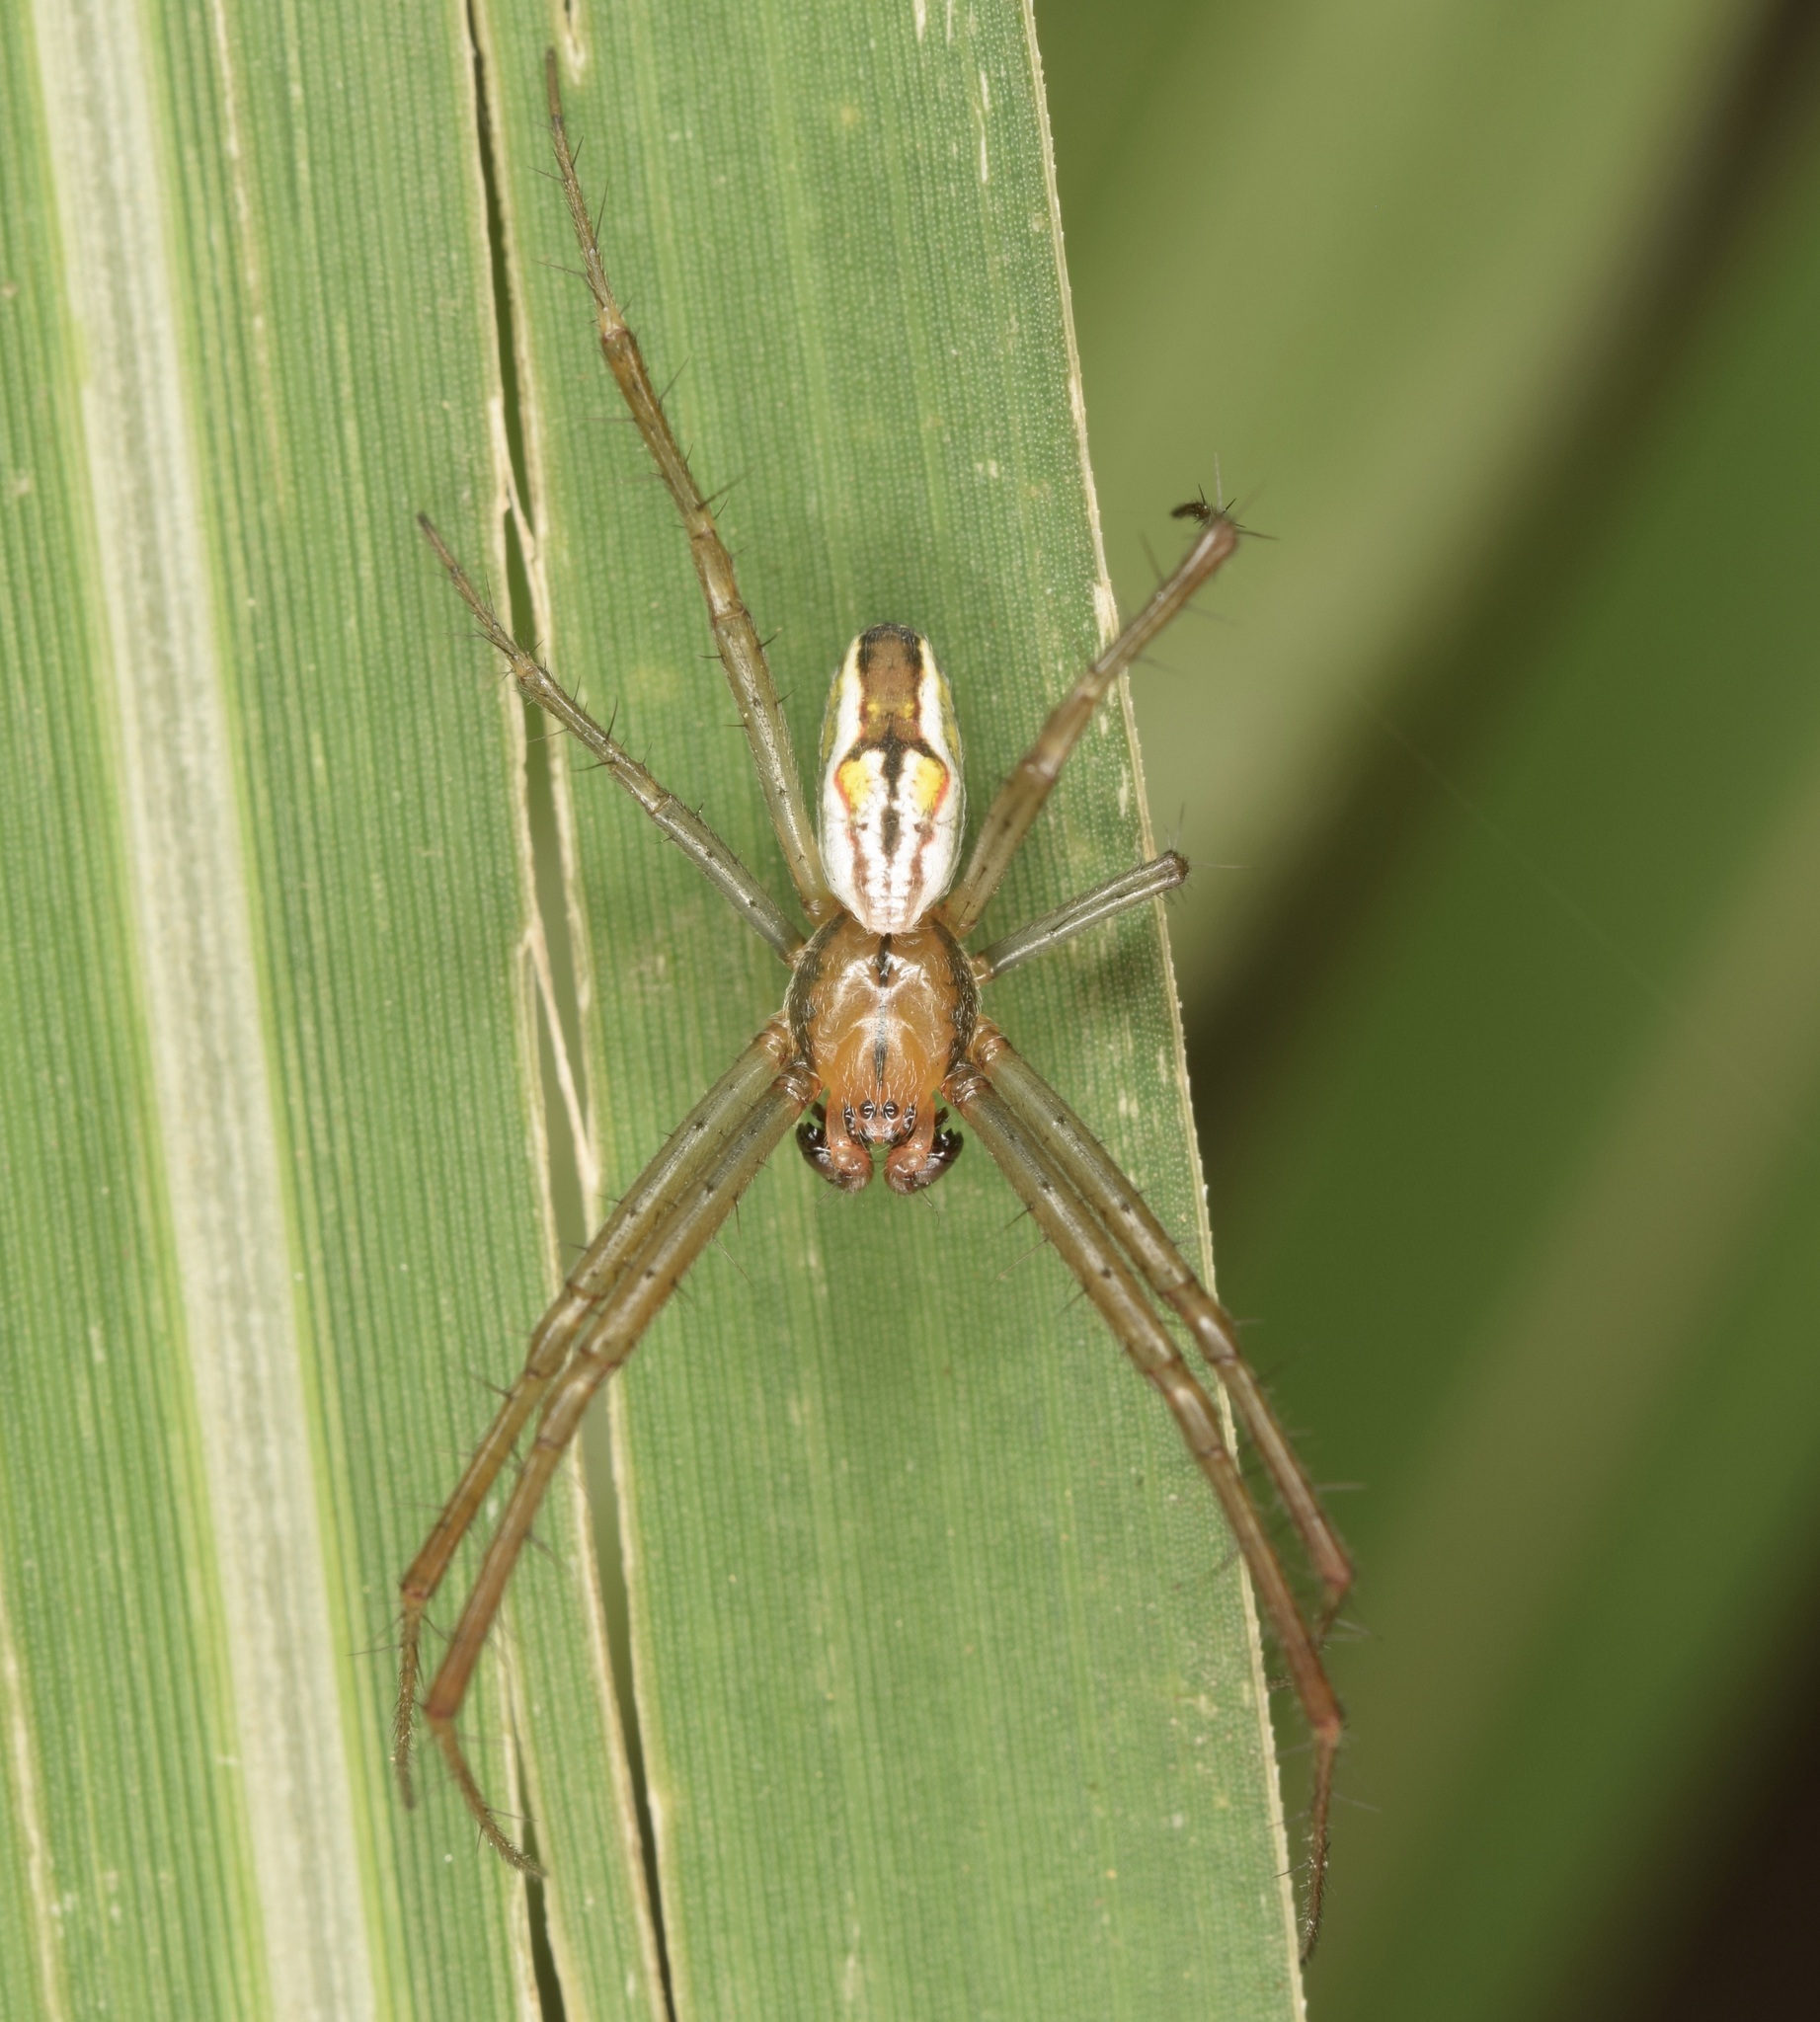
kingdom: Animalia
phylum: Arthropoda
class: Arachnida
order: Araneae
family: Araneidae
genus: Mecynogea
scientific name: Mecynogea lemniscata
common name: Orb weavers
